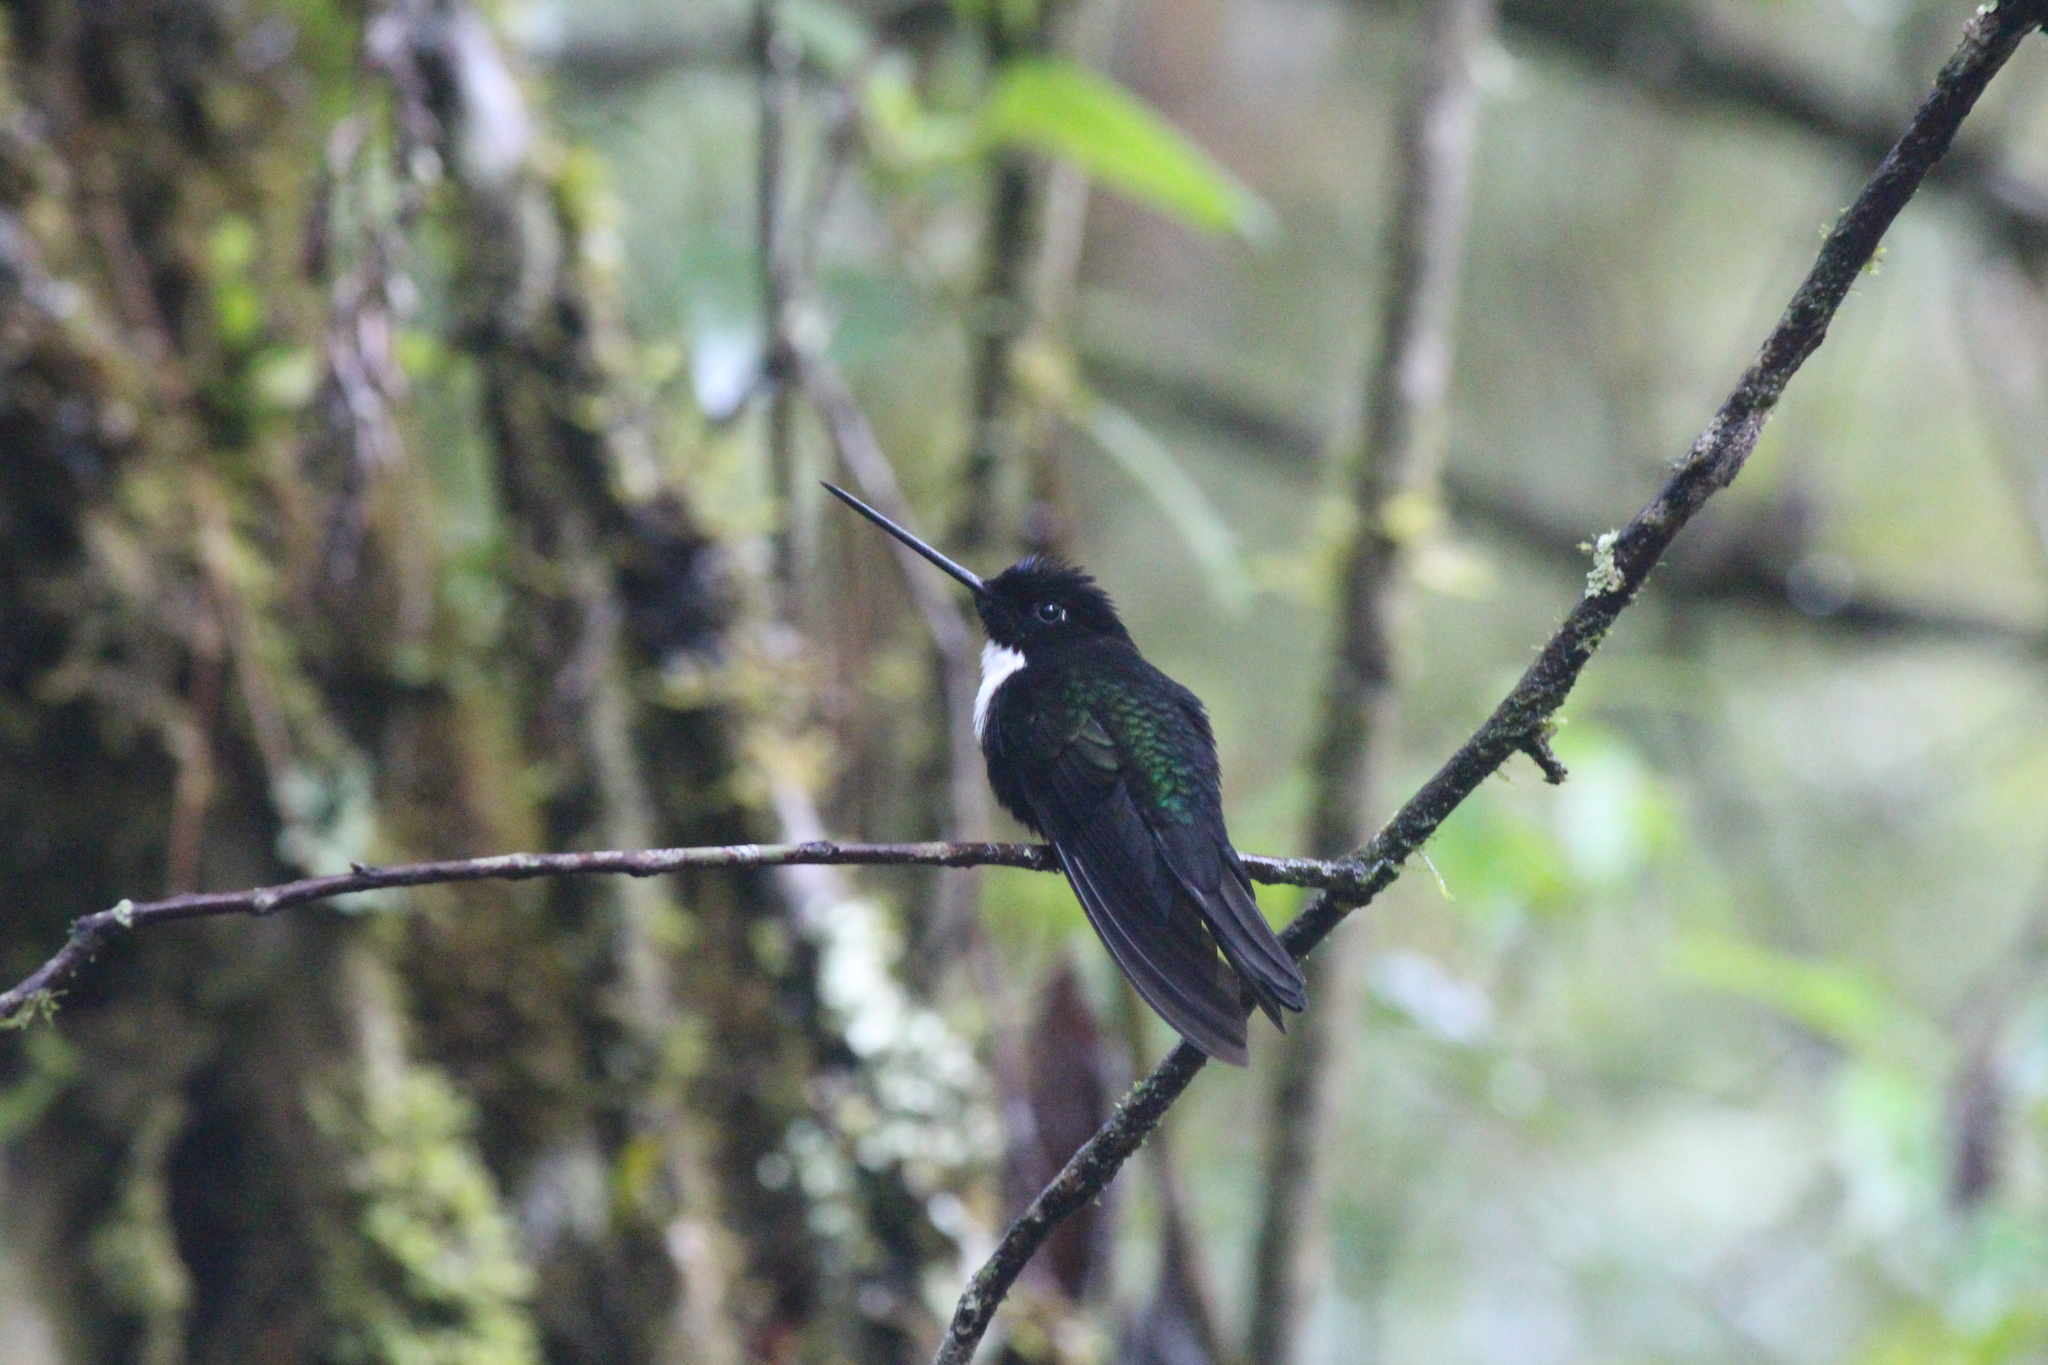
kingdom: Animalia
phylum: Chordata
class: Aves
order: Apodiformes
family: Trochilidae
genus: Coeligena
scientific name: Coeligena torquata
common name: Collared inca
